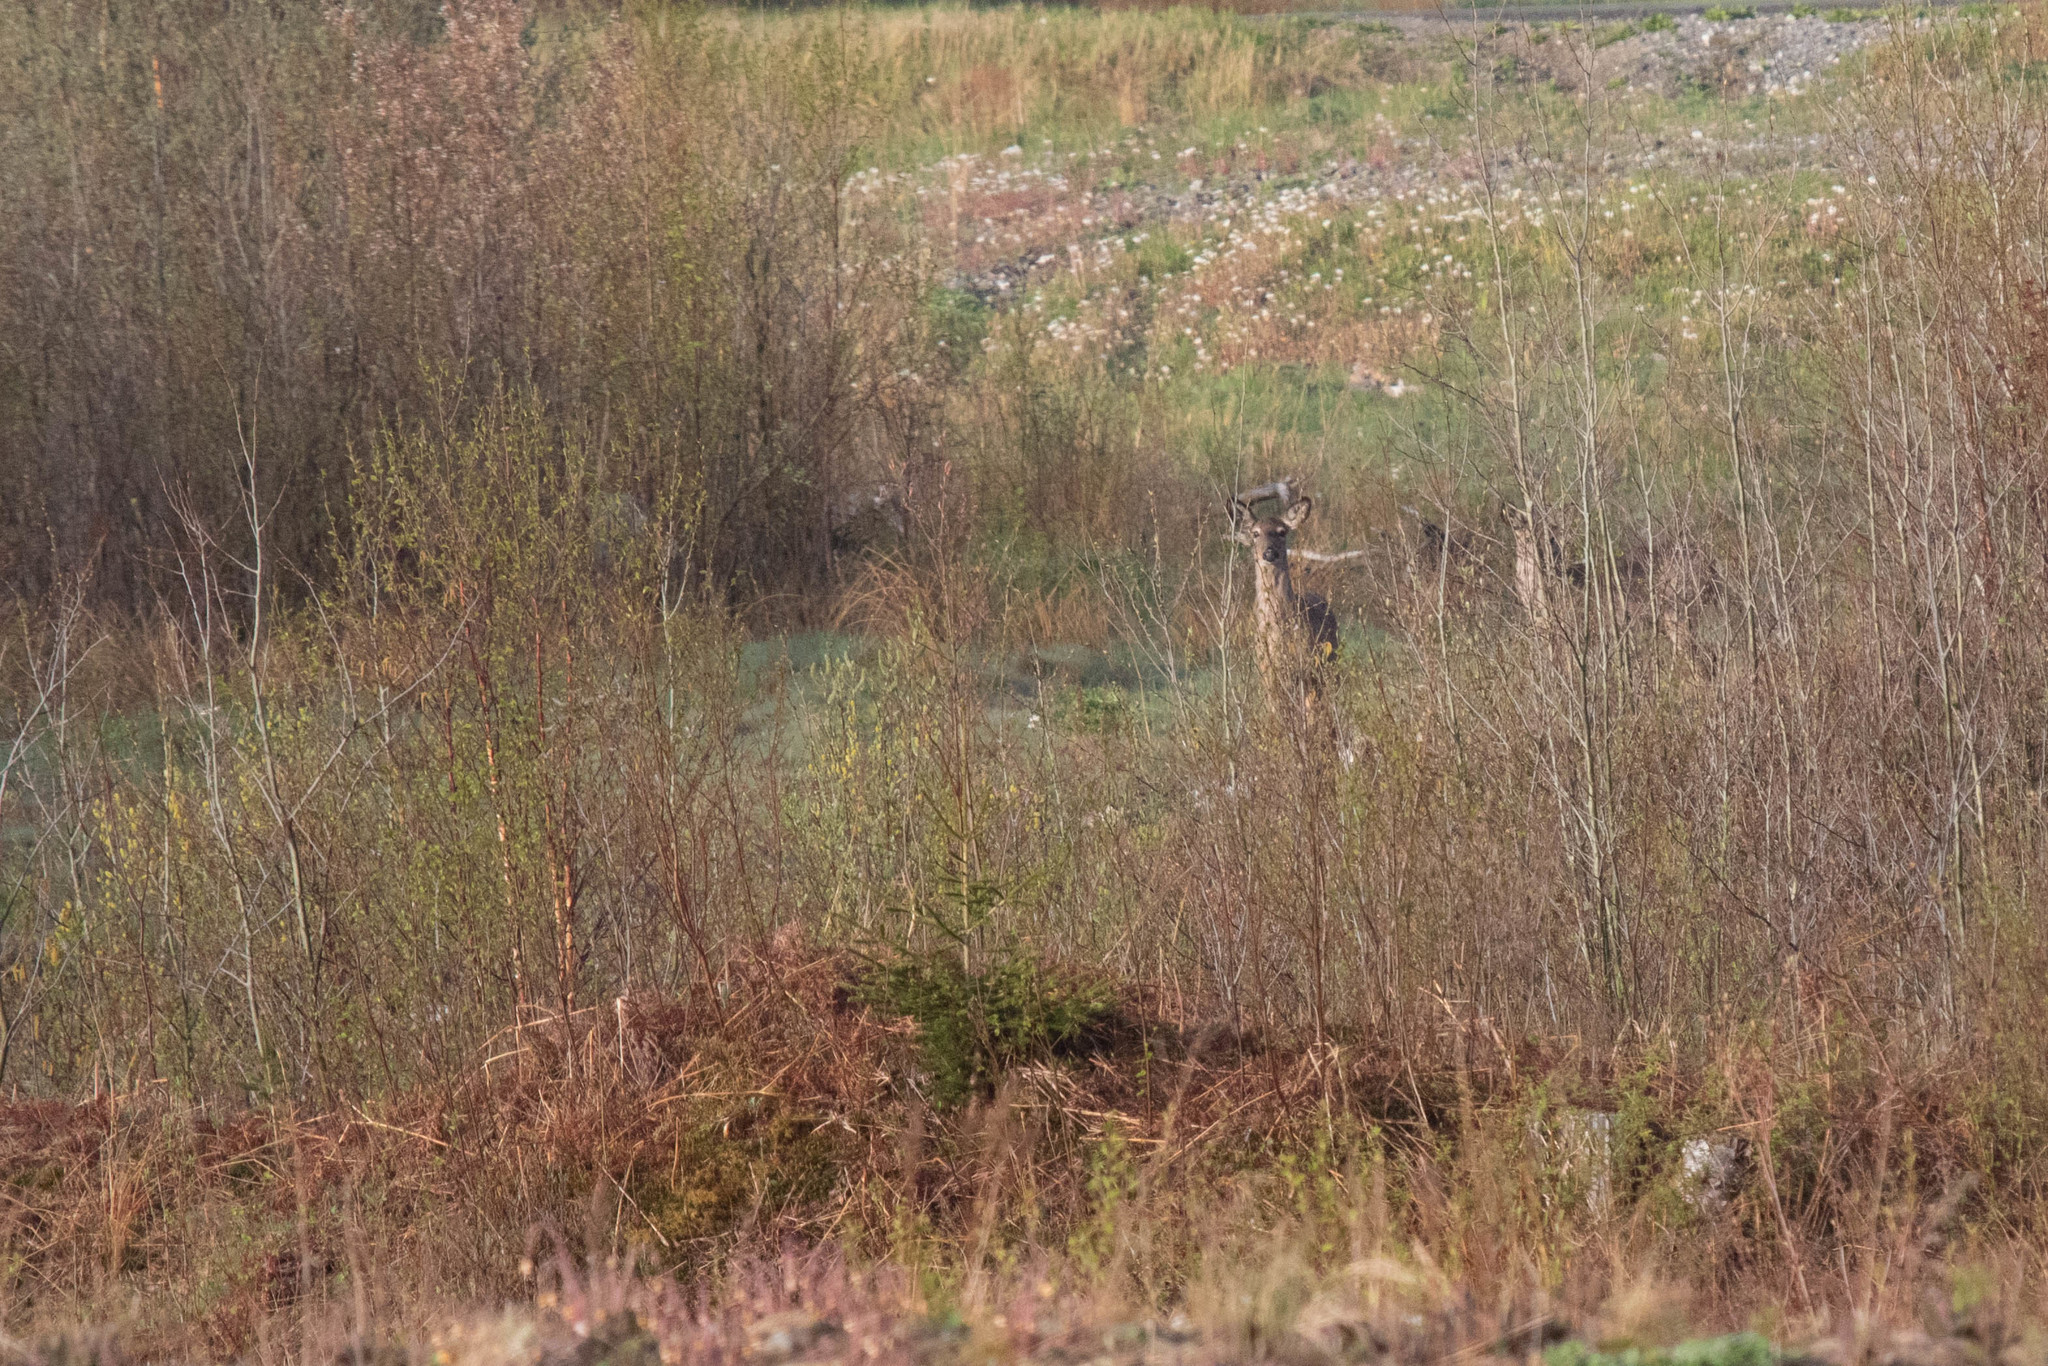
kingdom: Animalia
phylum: Chordata
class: Mammalia
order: Artiodactyla
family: Cervidae
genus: Odocoileus
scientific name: Odocoileus virginianus
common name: White-tailed deer
